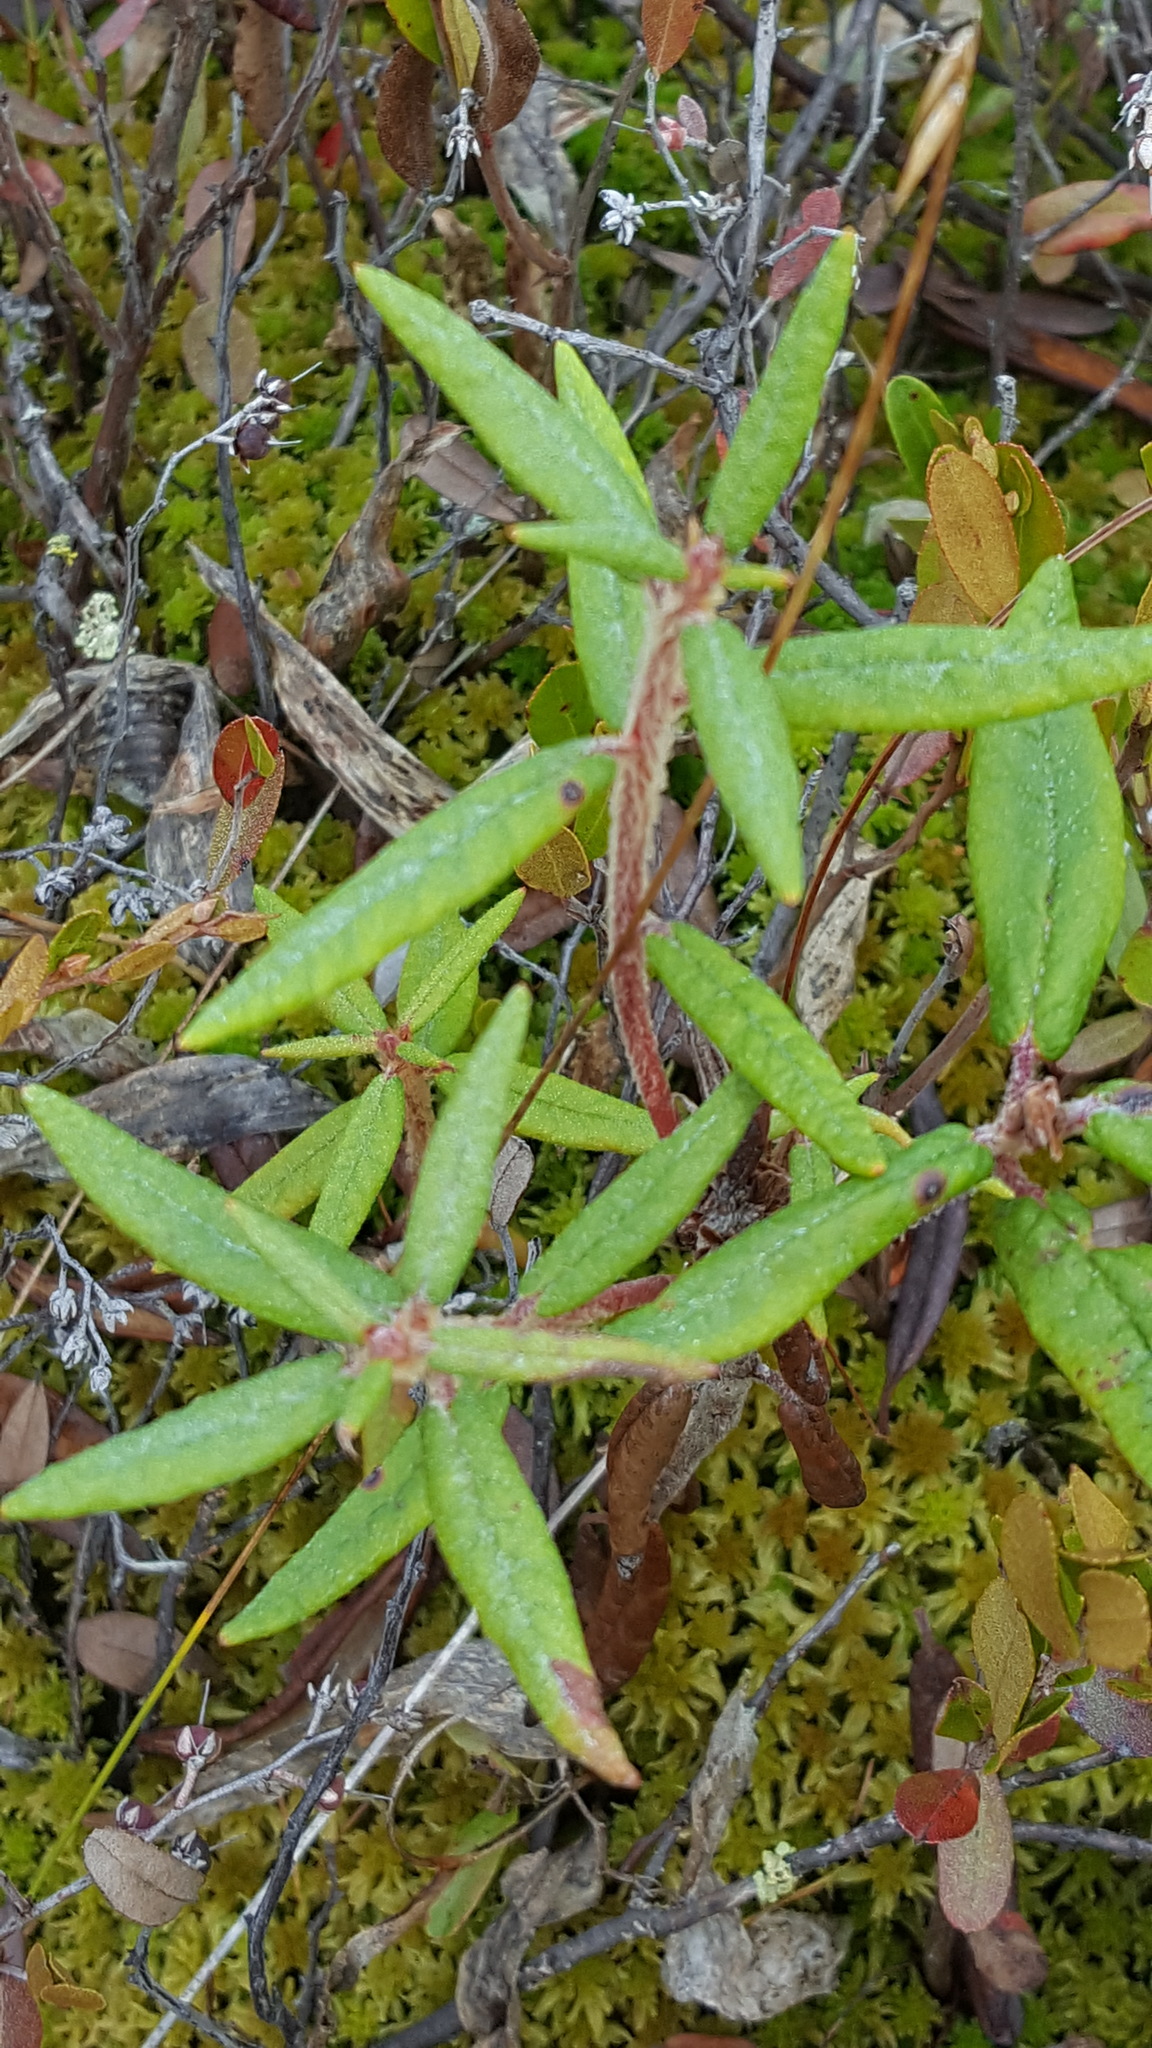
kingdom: Plantae
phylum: Tracheophyta
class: Magnoliopsida
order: Ericales
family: Ericaceae
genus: Rhododendron
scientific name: Rhododendron groenlandicum
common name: Bog labrador tea
